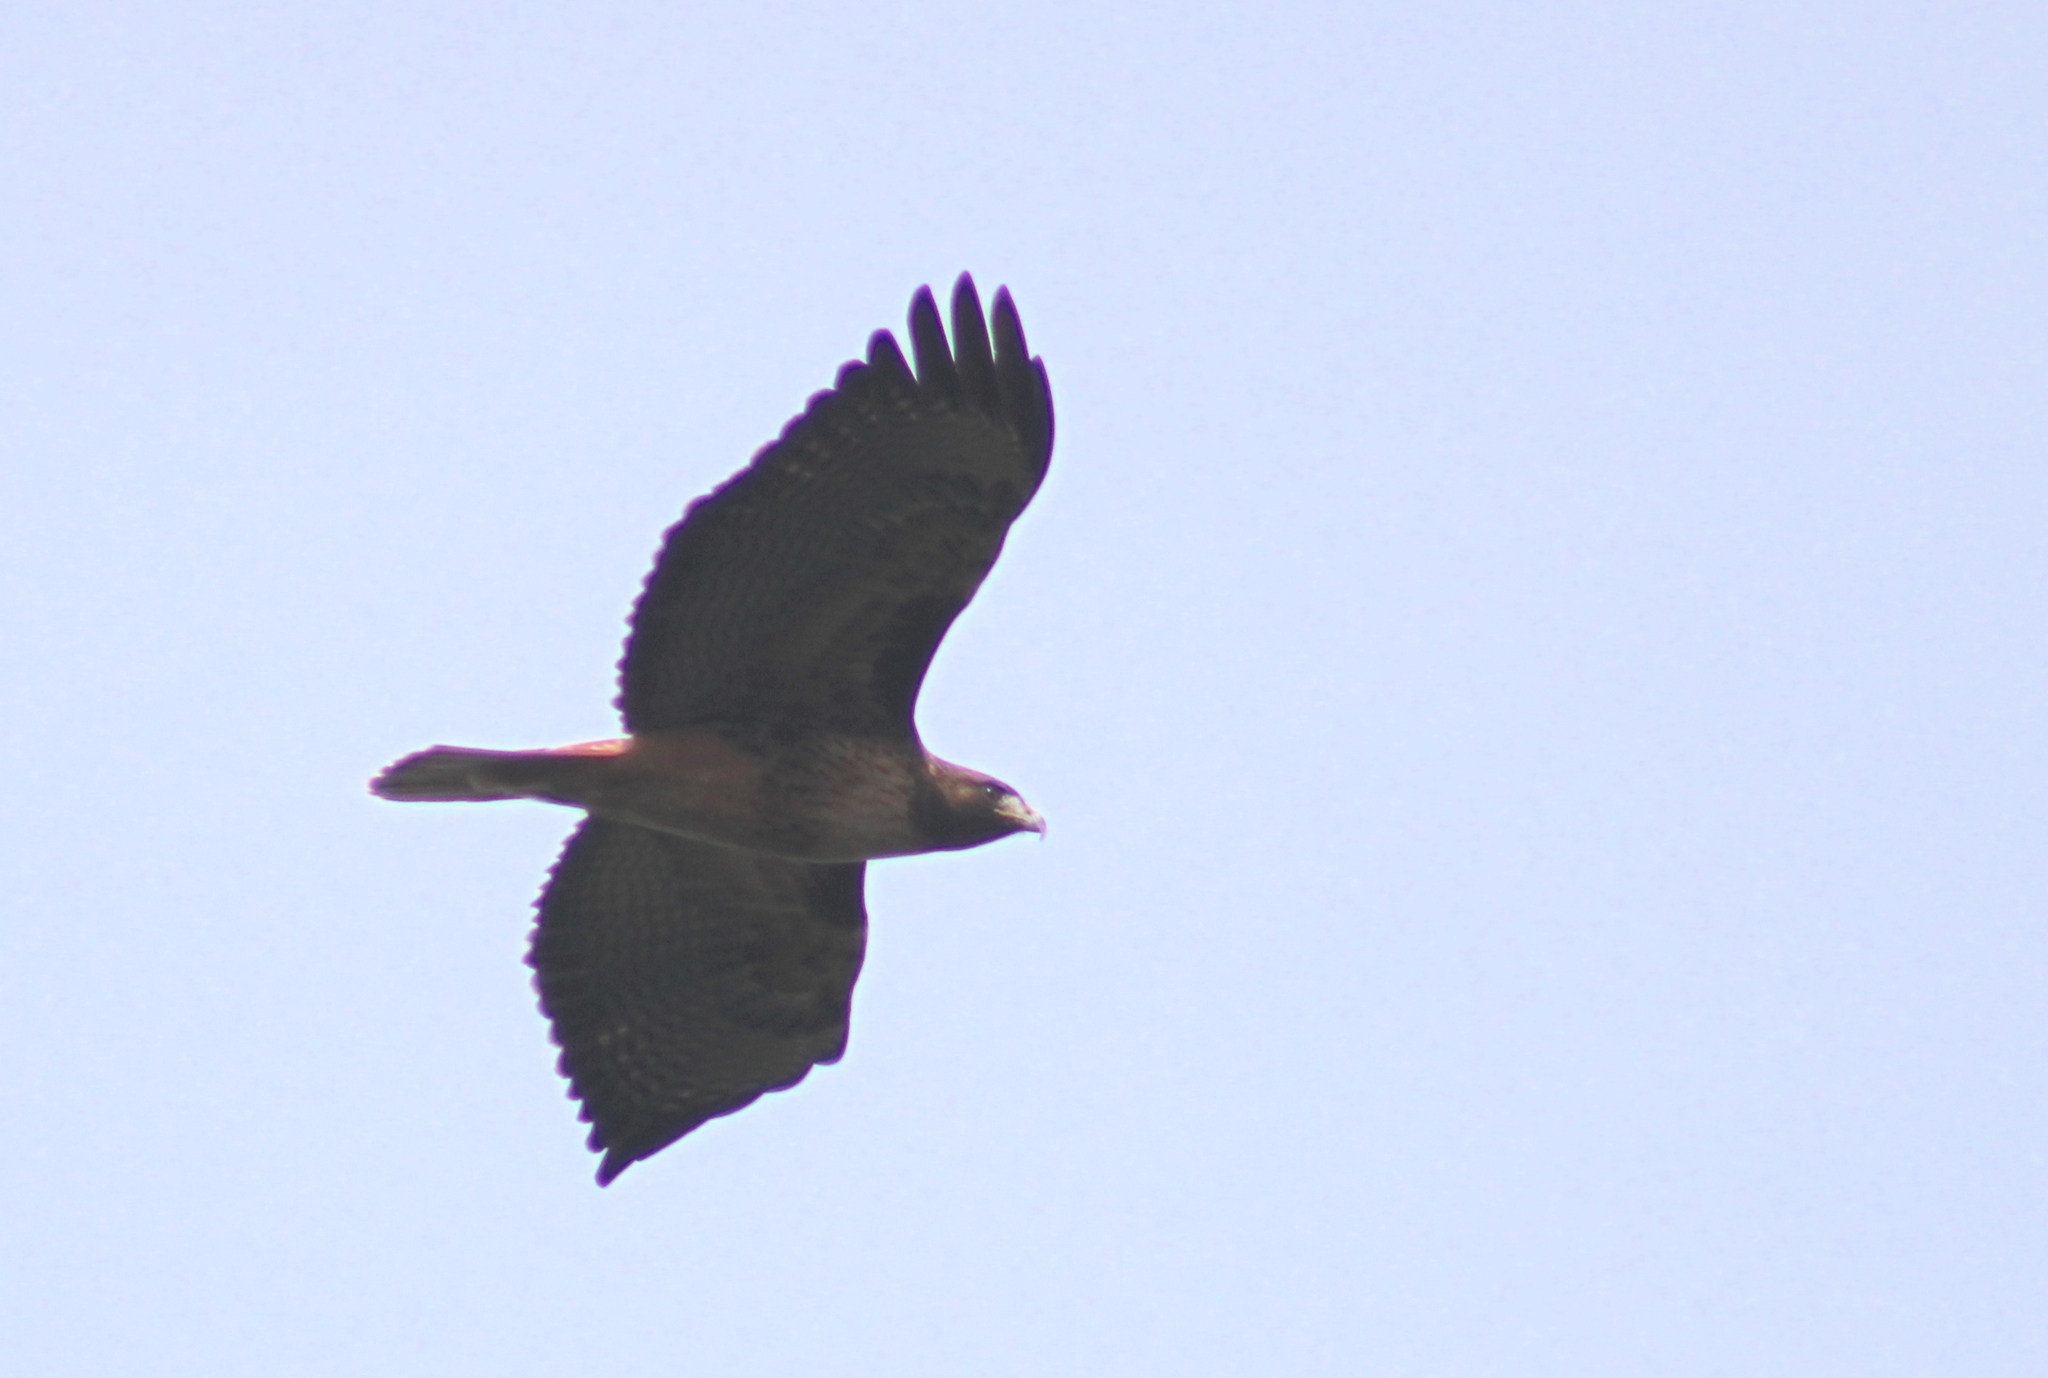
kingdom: Animalia
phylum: Chordata
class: Aves
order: Accipitriformes
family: Accipitridae
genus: Buteo
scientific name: Buteo jamaicensis
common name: Red-tailed hawk
